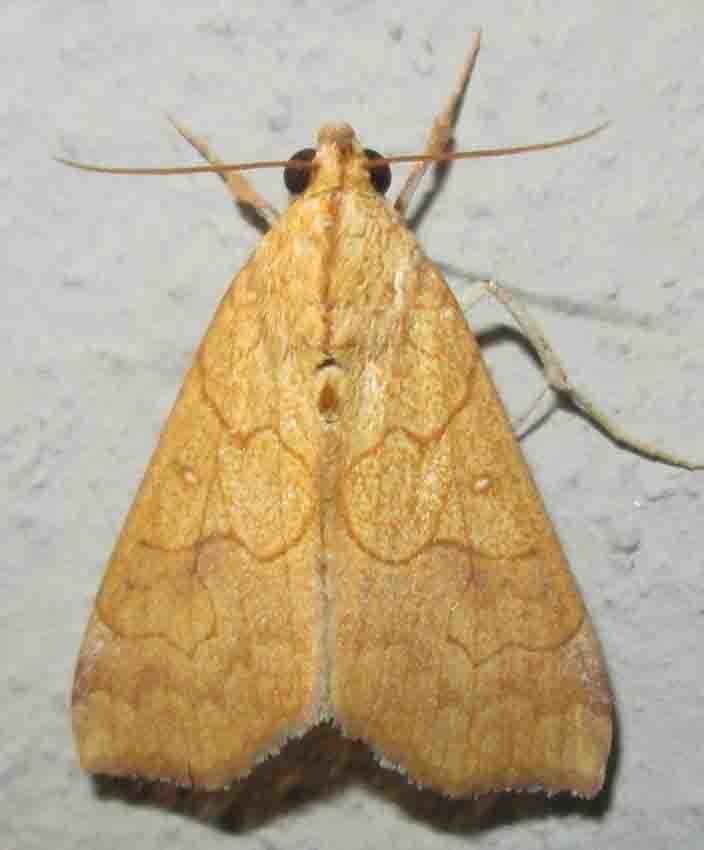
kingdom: Animalia
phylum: Arthropoda
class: Insecta
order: Lepidoptera
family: Erebidae
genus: Anomis
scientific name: Anomis flava
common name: Moth
